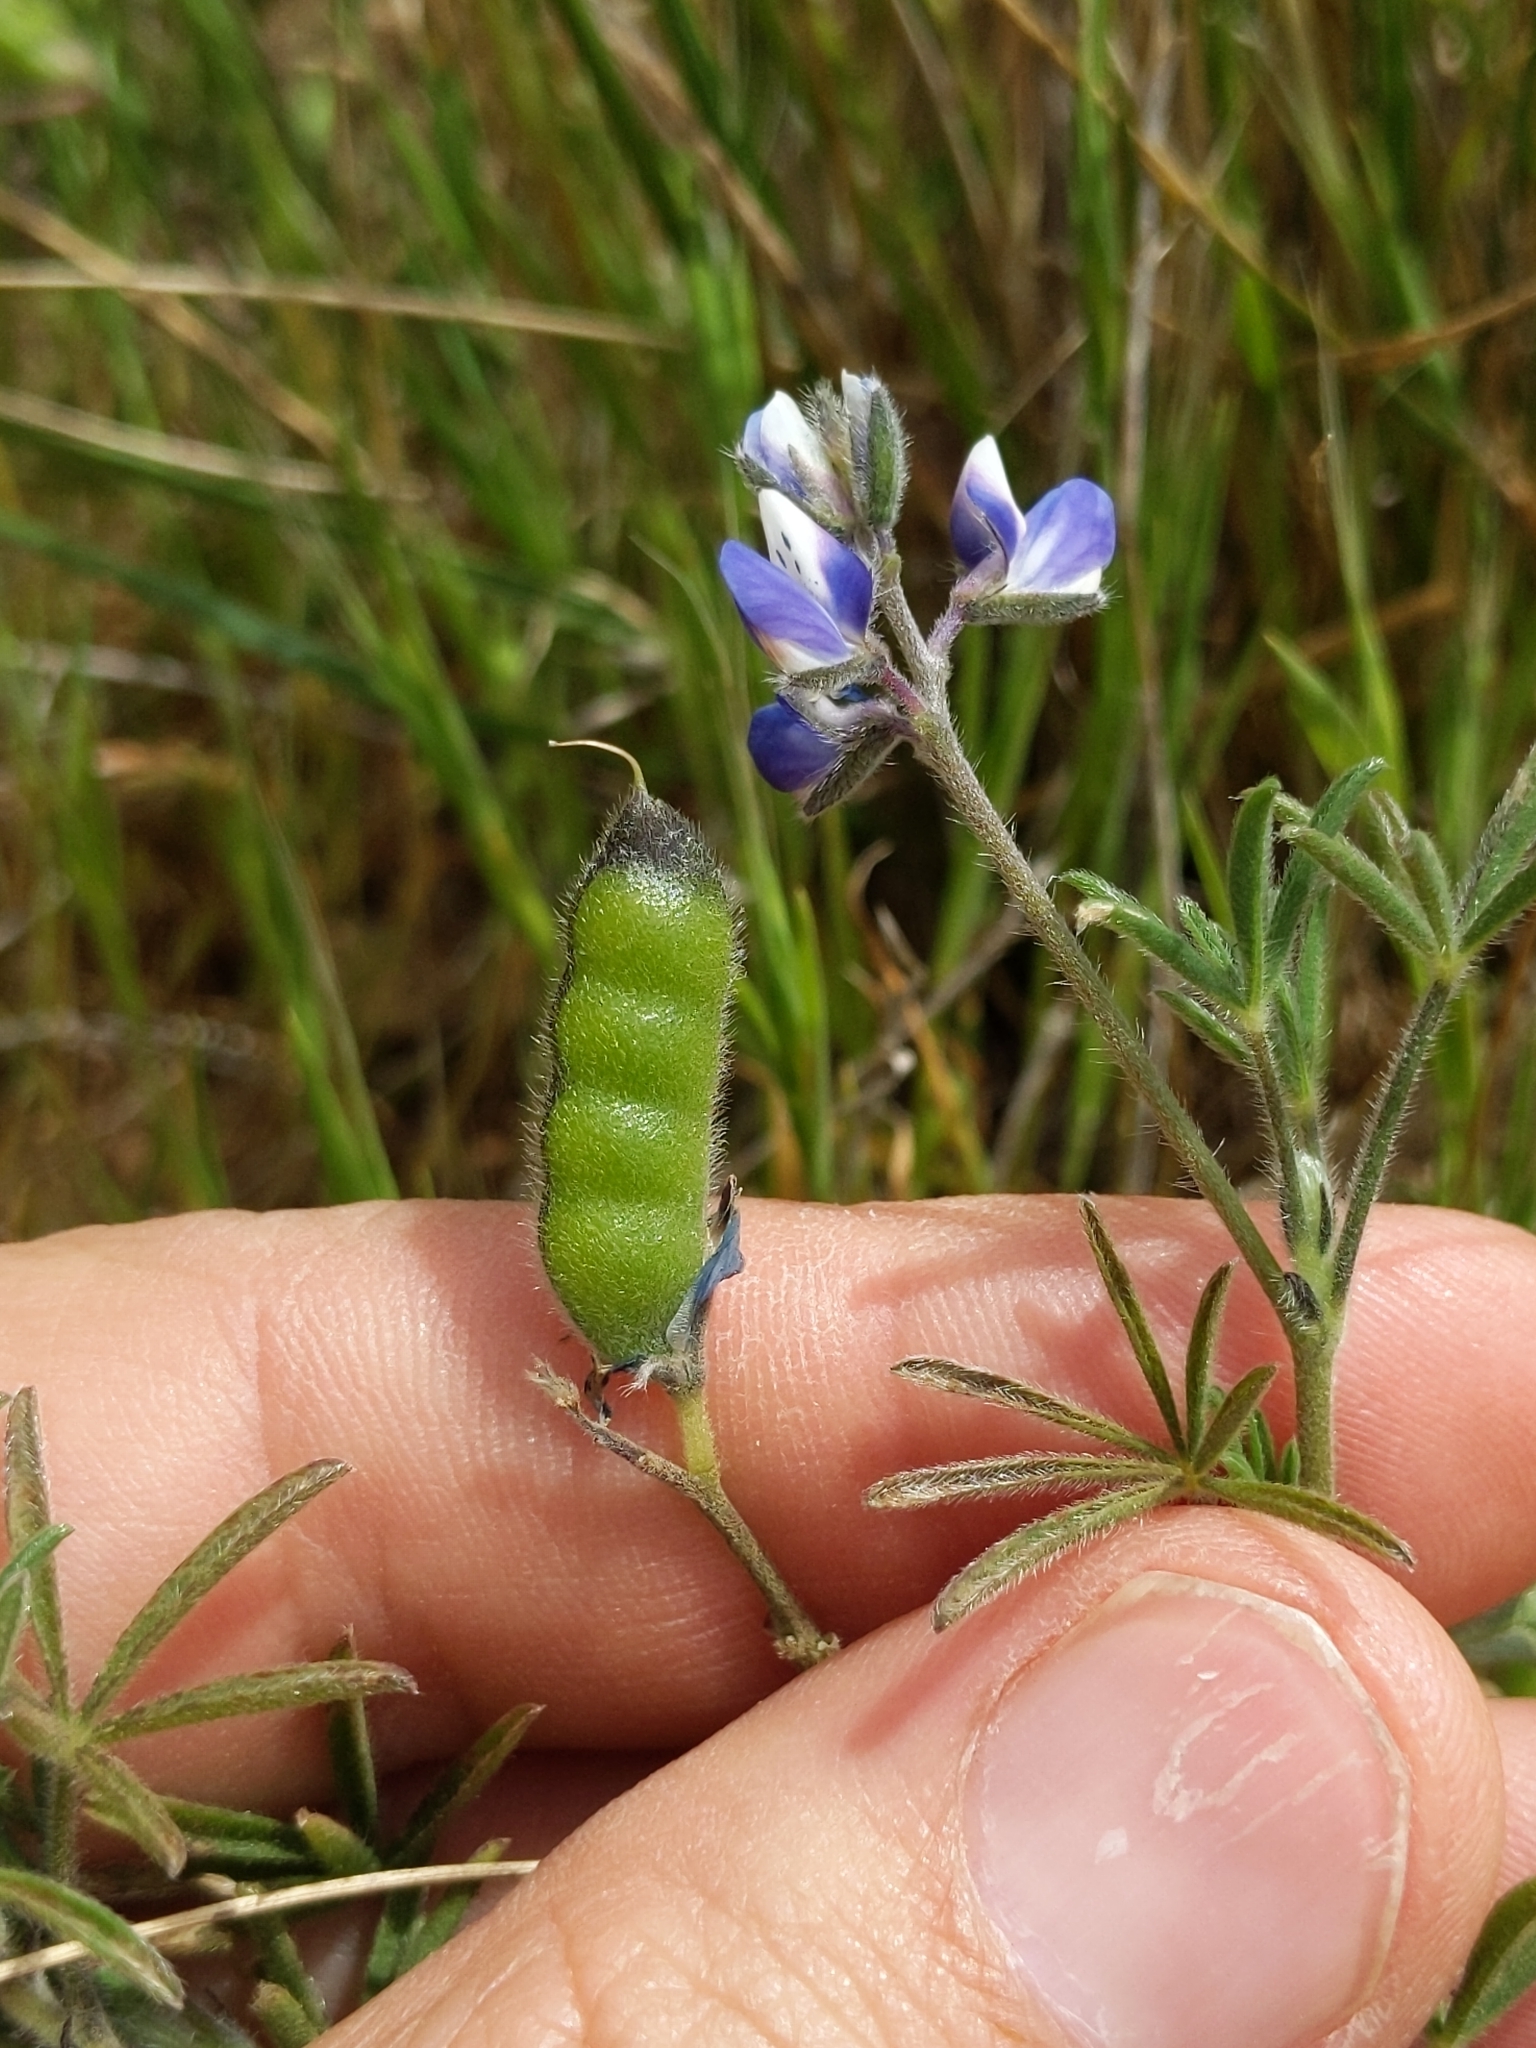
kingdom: Plantae
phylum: Tracheophyta
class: Magnoliopsida
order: Fabales
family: Fabaceae
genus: Lupinus
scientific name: Lupinus bicolor
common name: Miniature lupine
